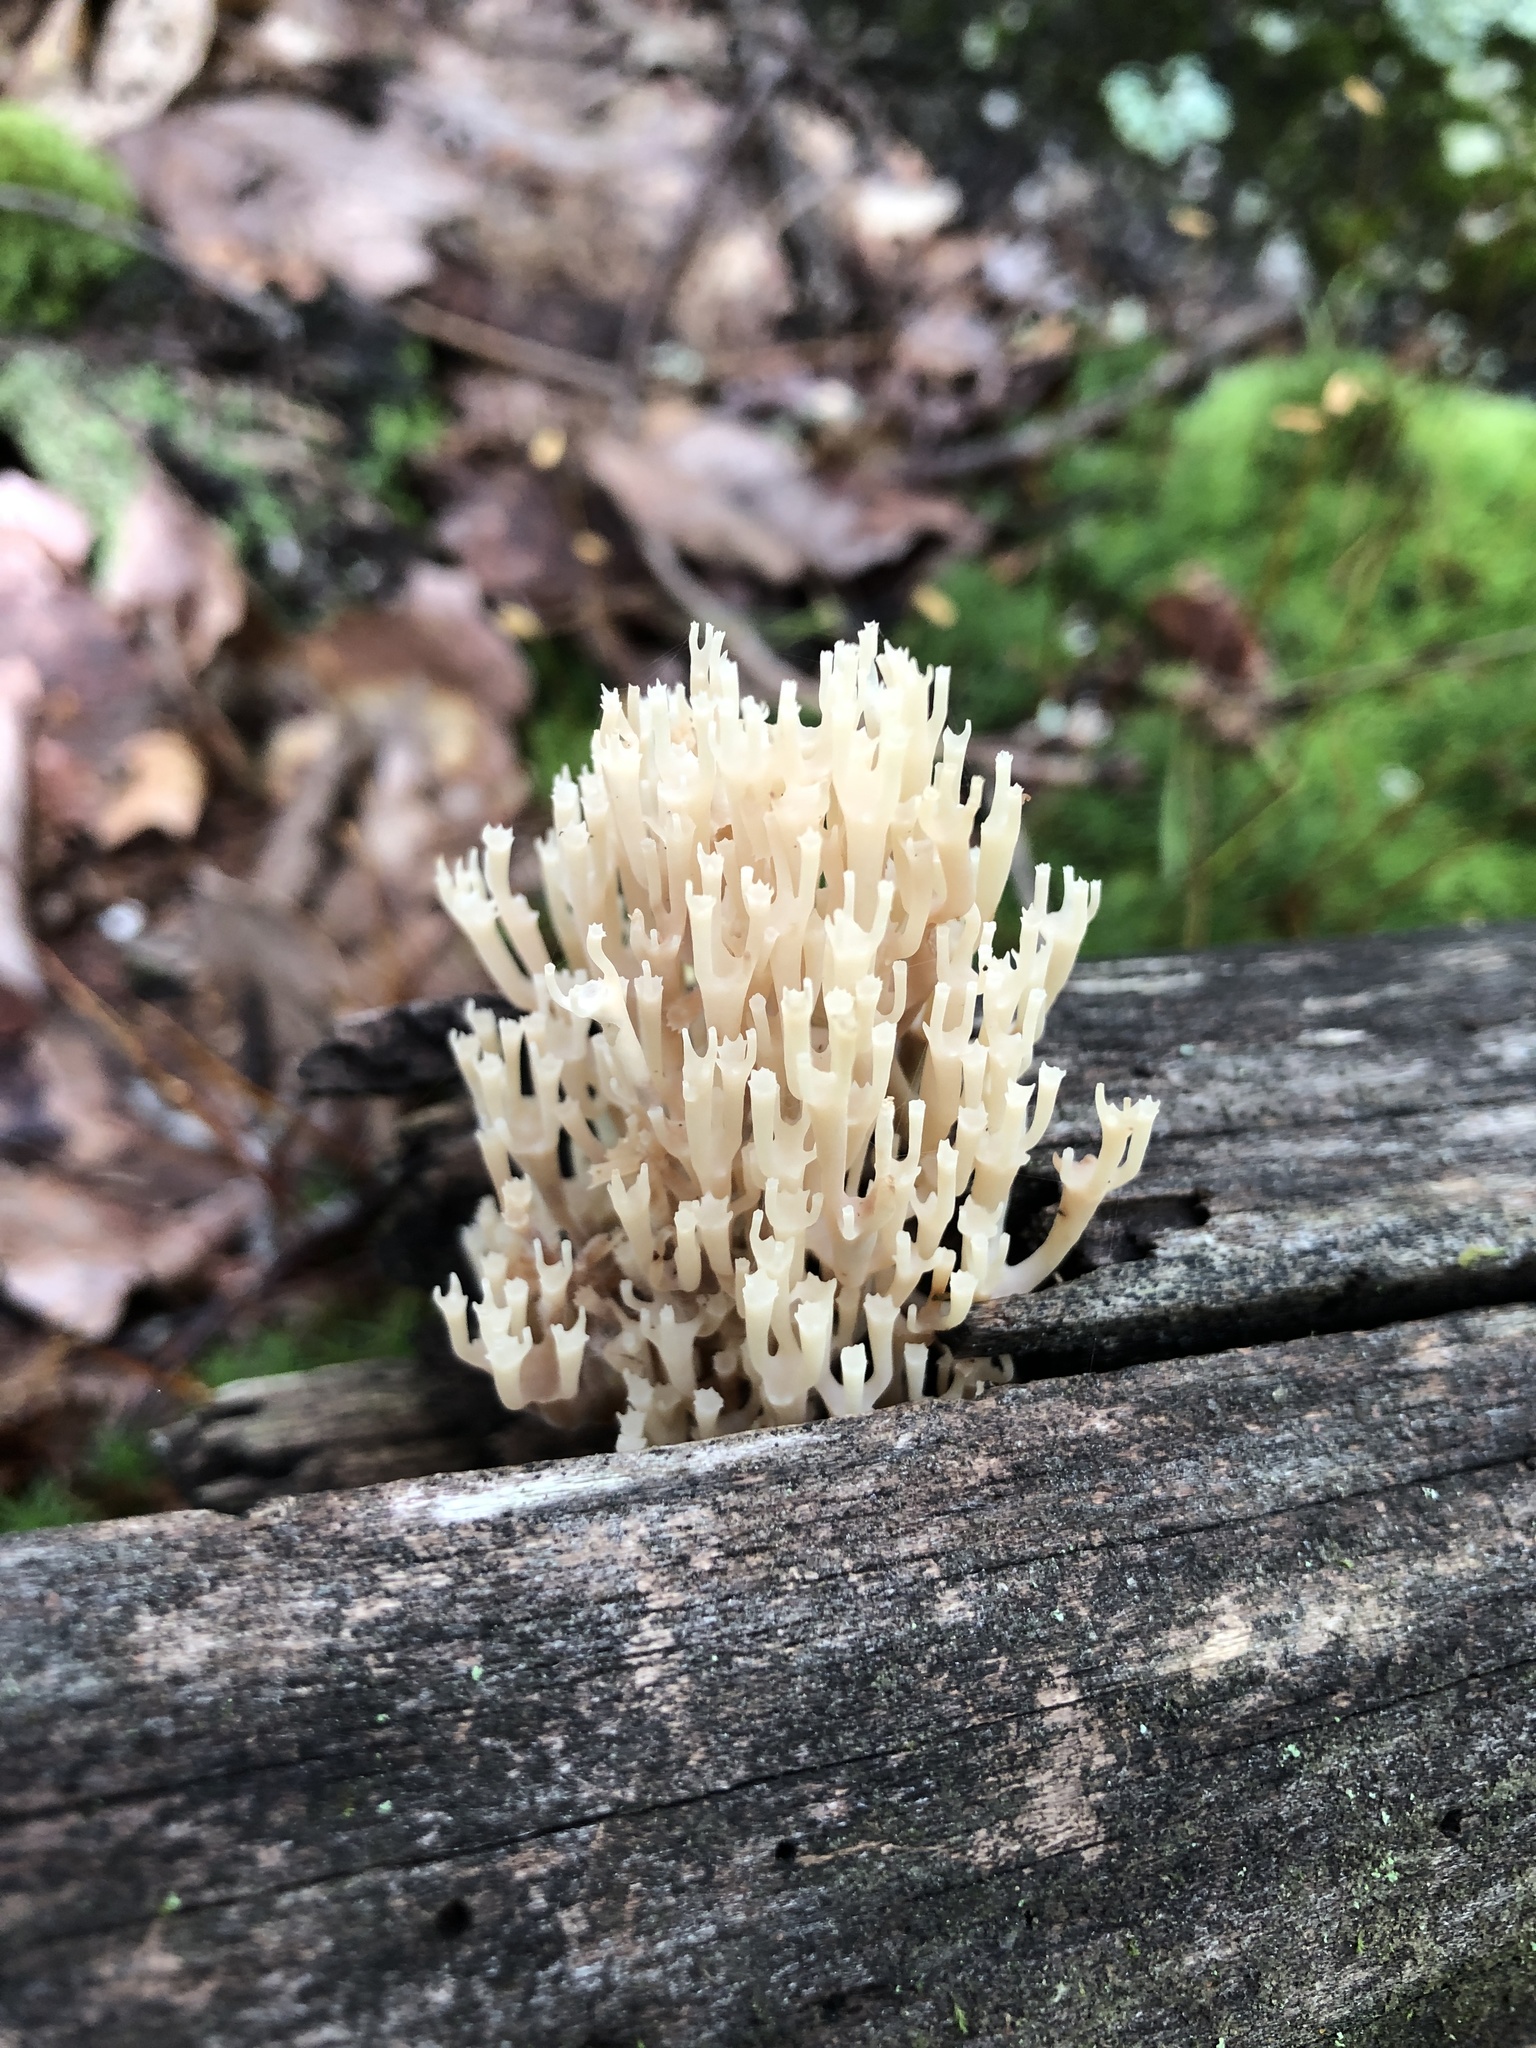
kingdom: Fungi
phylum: Basidiomycota
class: Agaricomycetes
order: Russulales
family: Auriscalpiaceae
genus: Artomyces
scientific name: Artomyces pyxidatus
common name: Crown-tipped coral fungus
